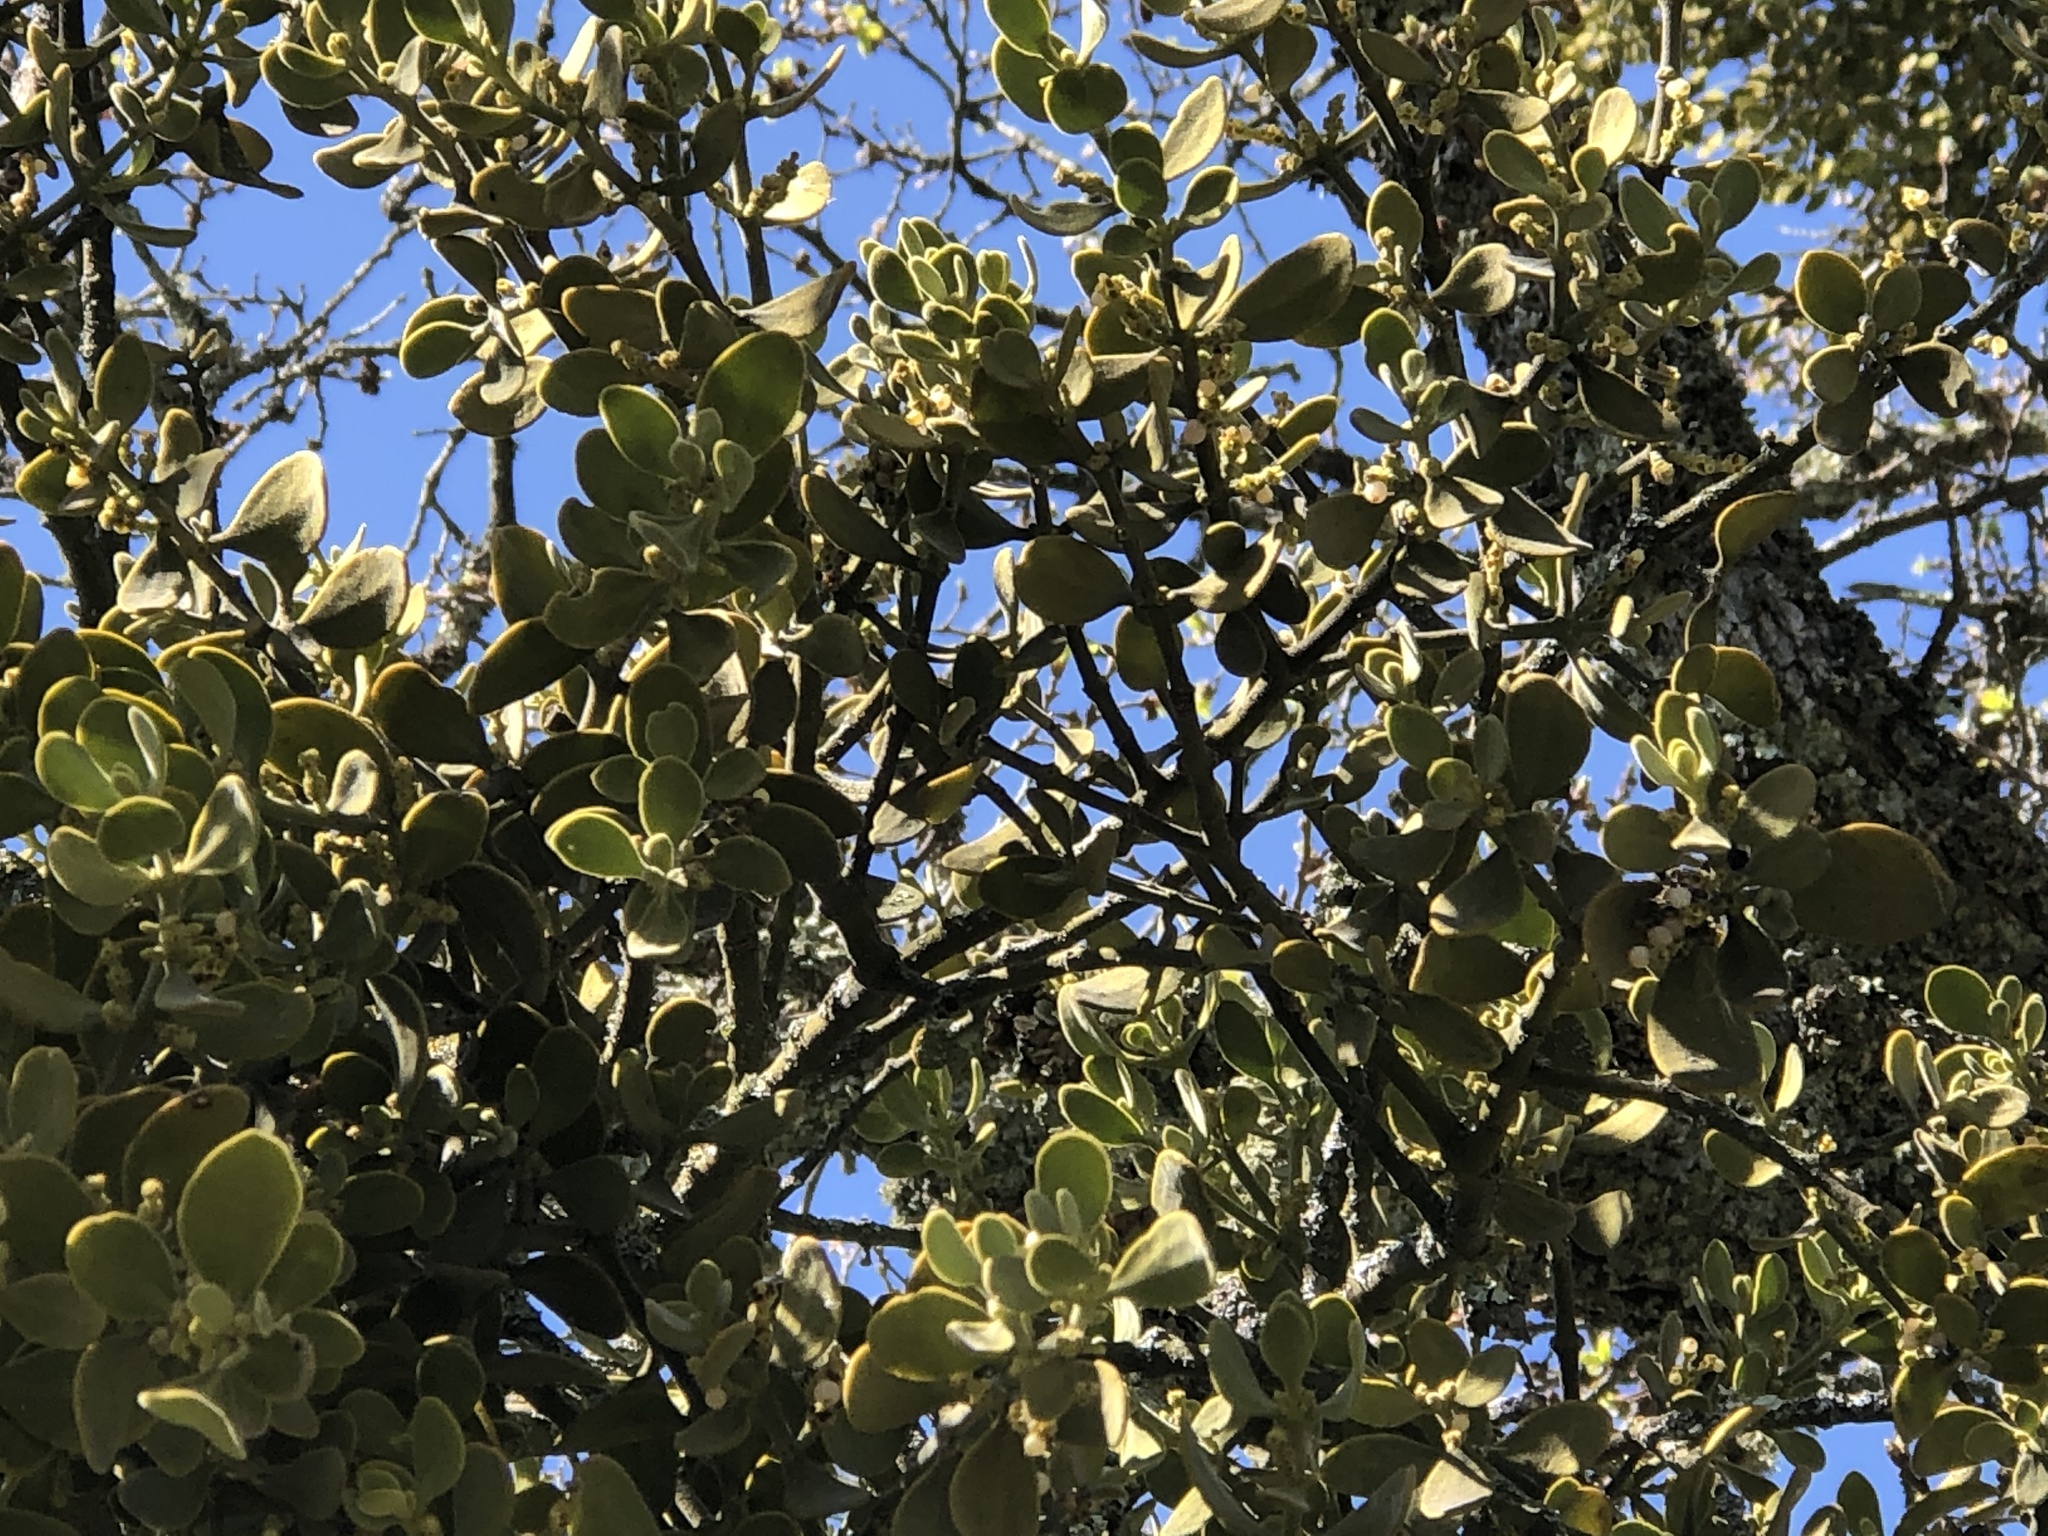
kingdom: Plantae
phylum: Tracheophyta
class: Magnoliopsida
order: Santalales
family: Viscaceae
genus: Phoradendron
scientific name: Phoradendron leucarpum
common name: Pacific mistletoe
